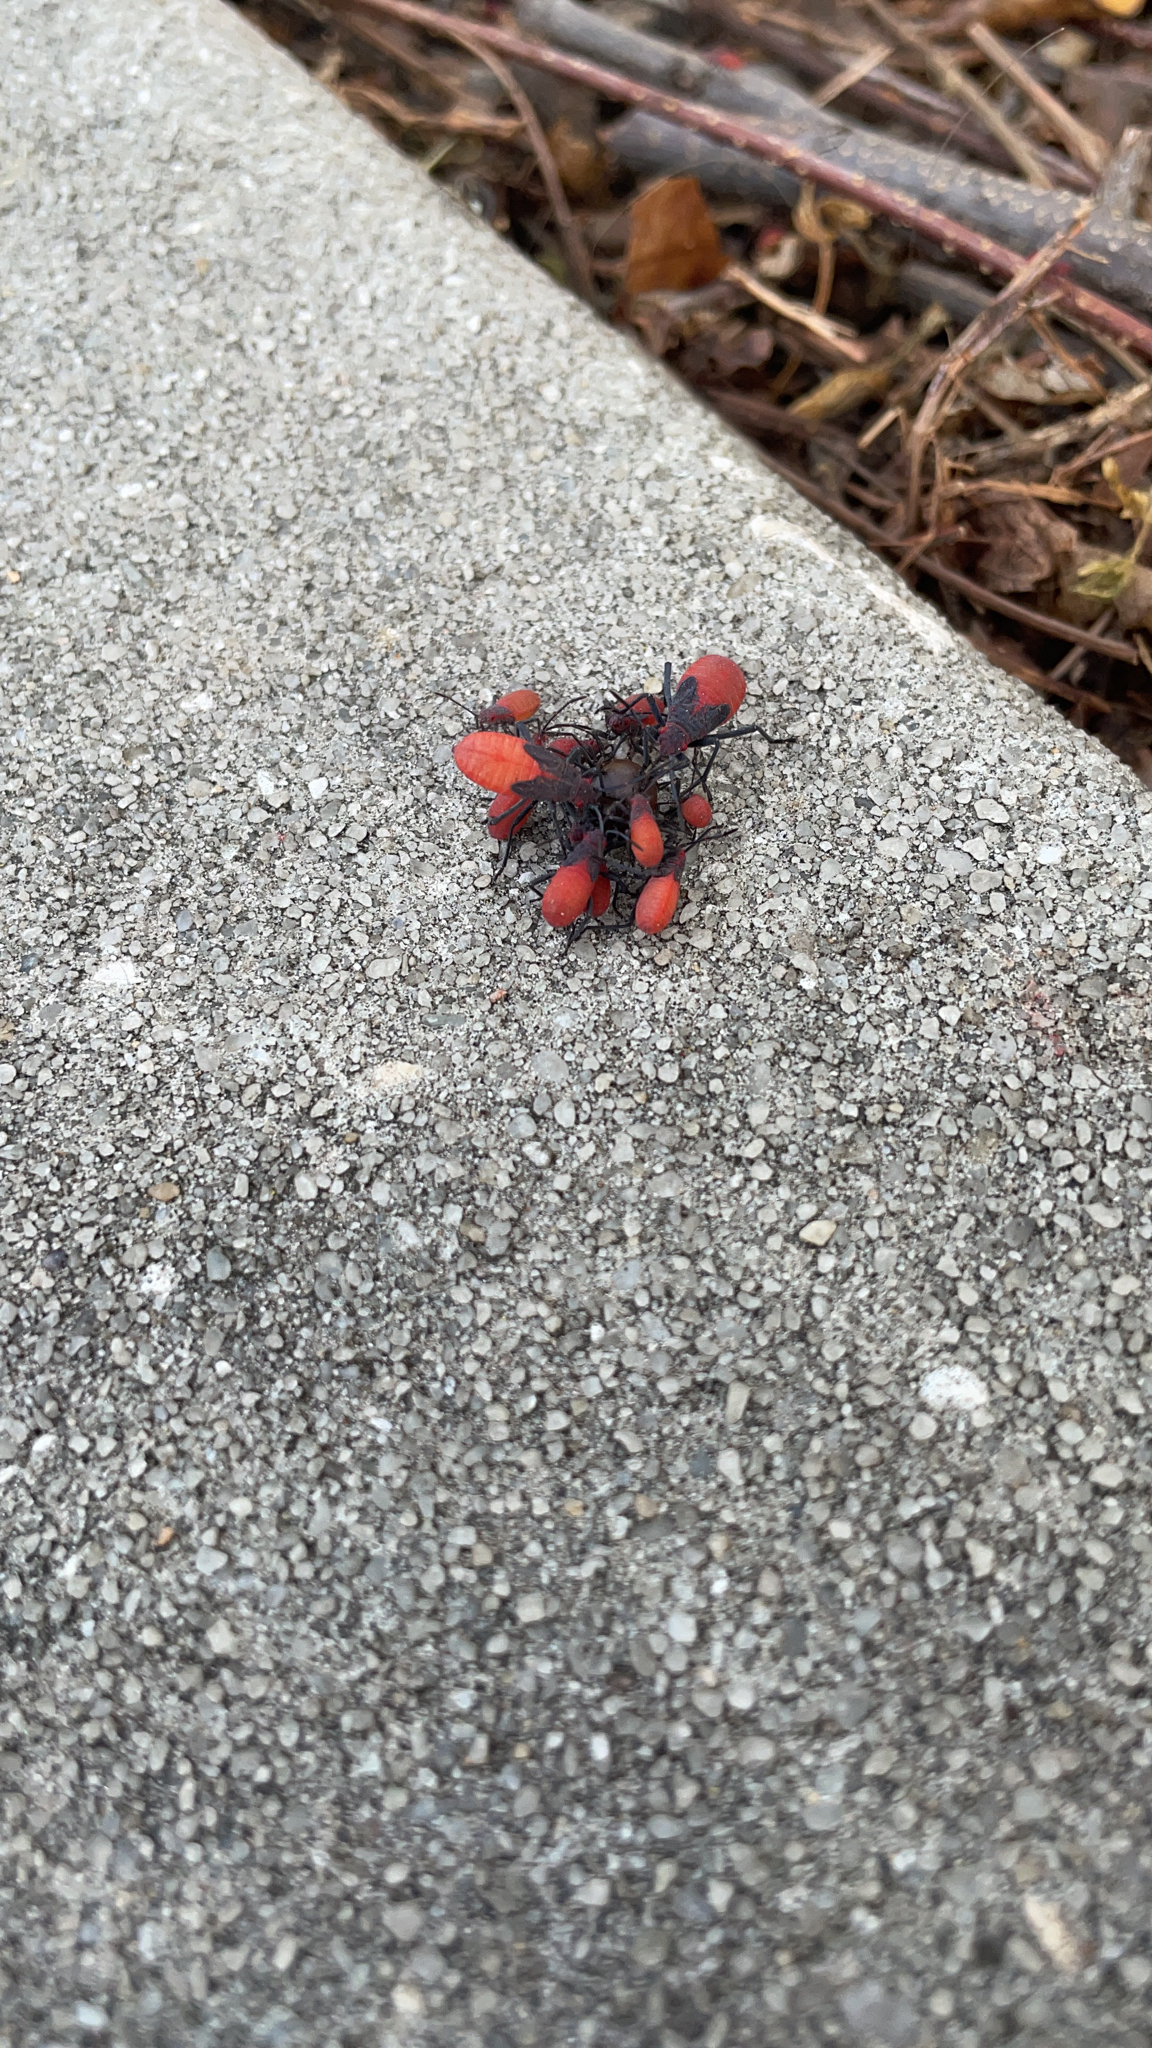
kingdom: Animalia
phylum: Arthropoda
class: Insecta
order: Hemiptera
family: Rhopalidae
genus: Jadera
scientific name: Jadera haematoloma
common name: Red-shouldered bug
